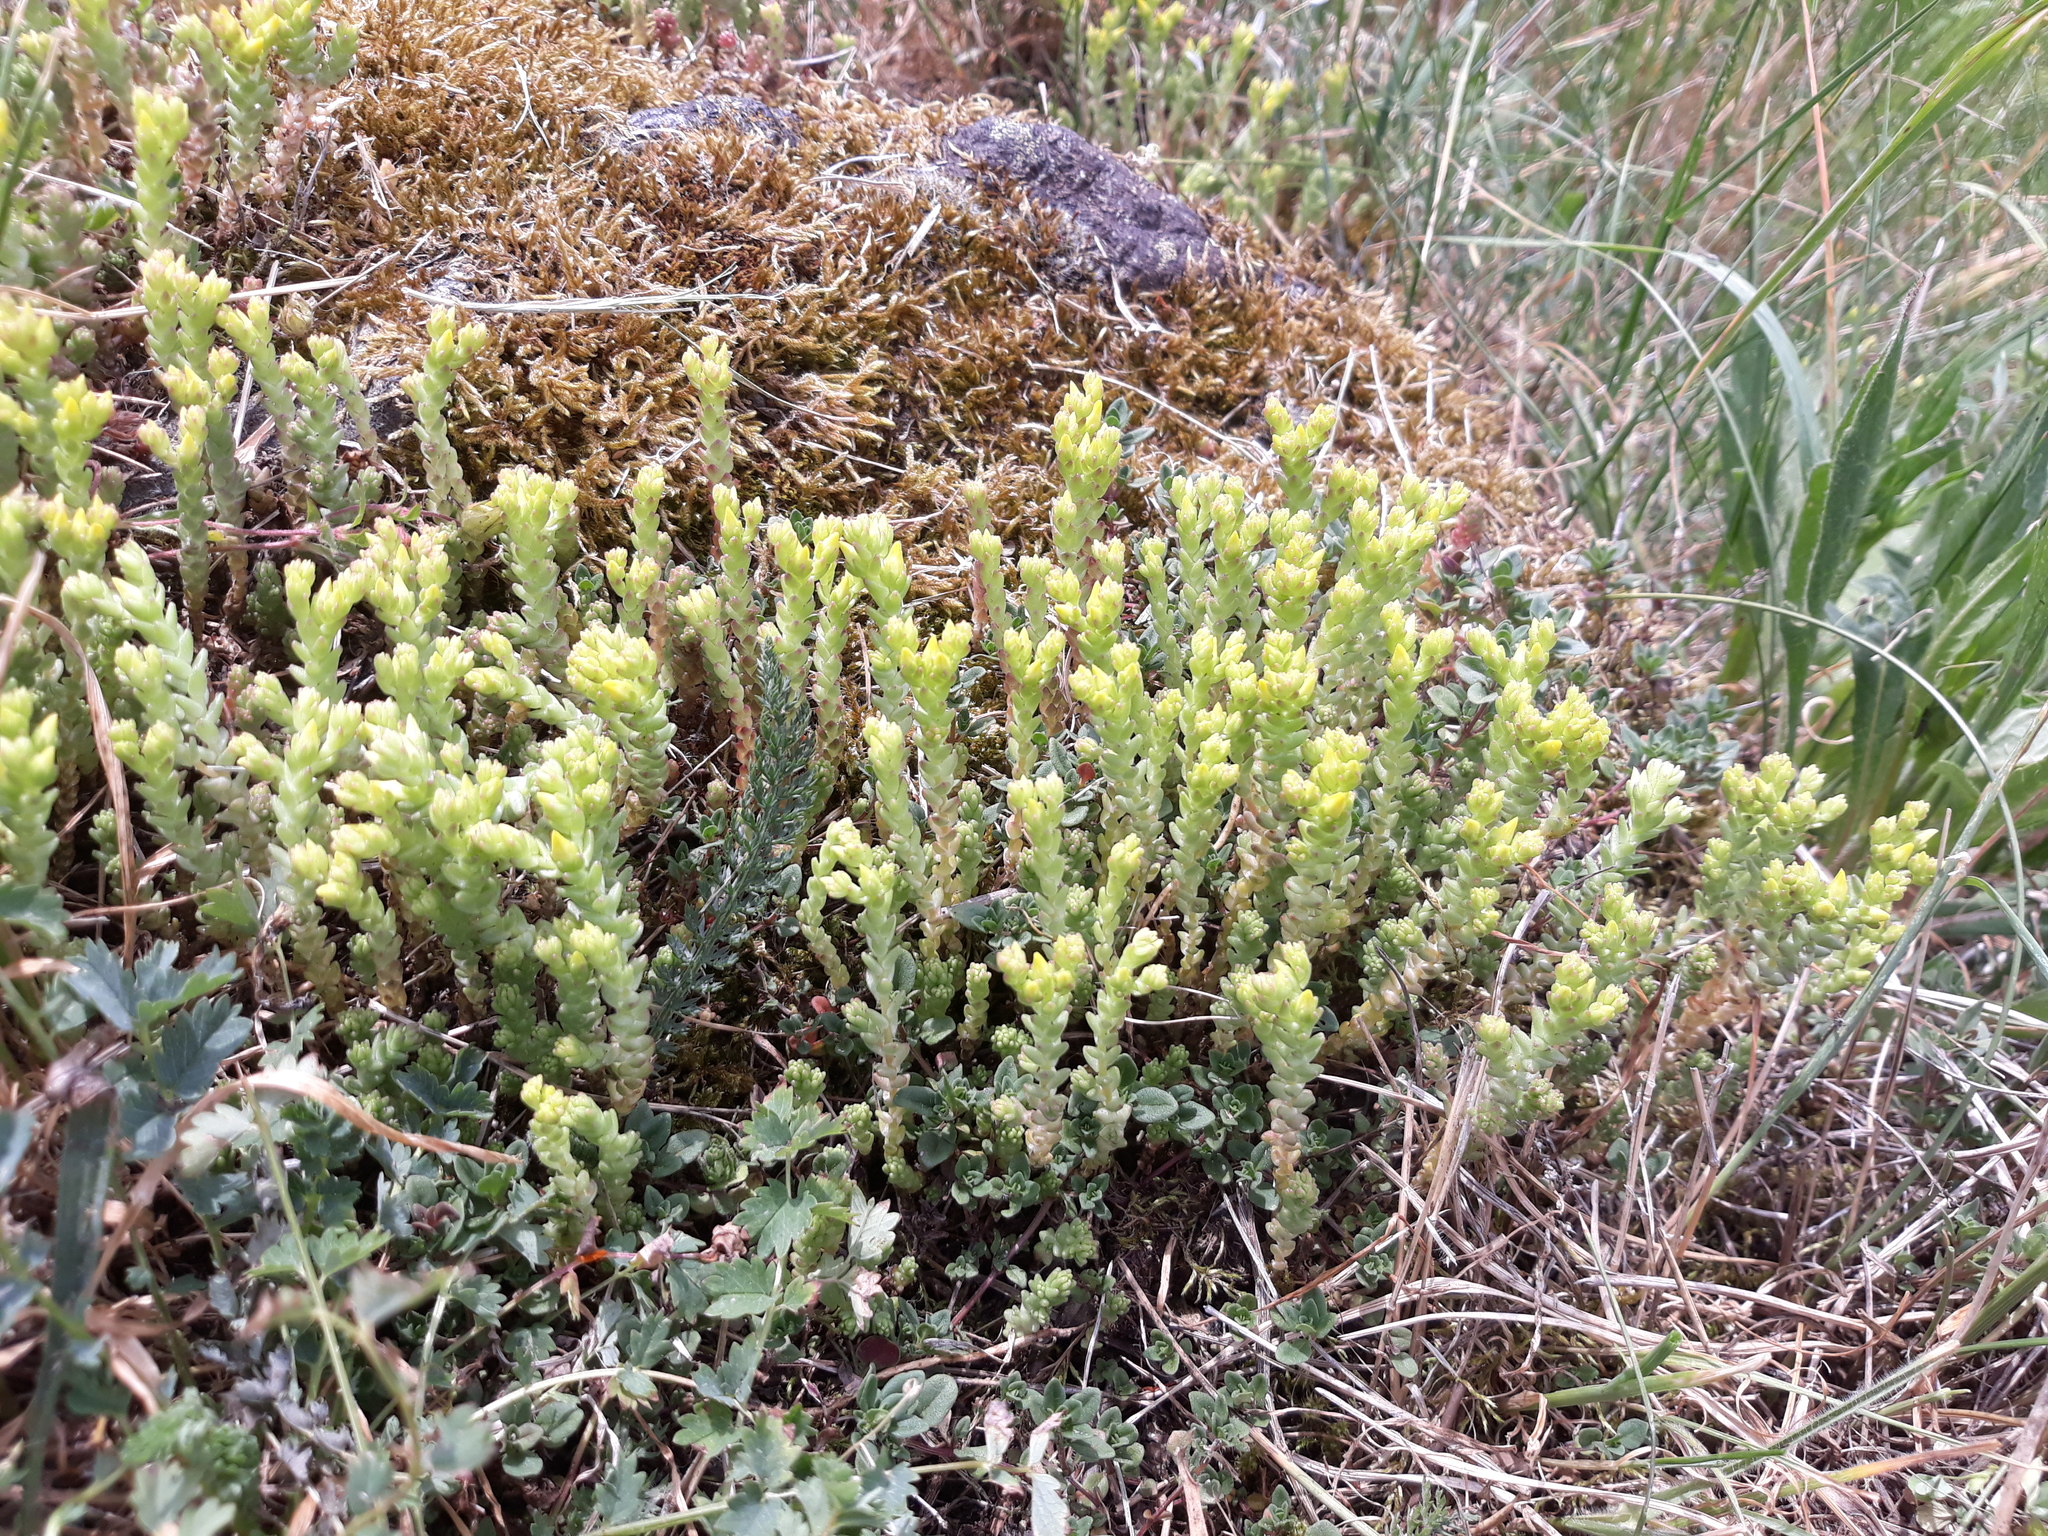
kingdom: Plantae
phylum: Tracheophyta
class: Magnoliopsida
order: Saxifragales
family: Crassulaceae
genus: Sedum
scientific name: Sedum acre
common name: Biting stonecrop
